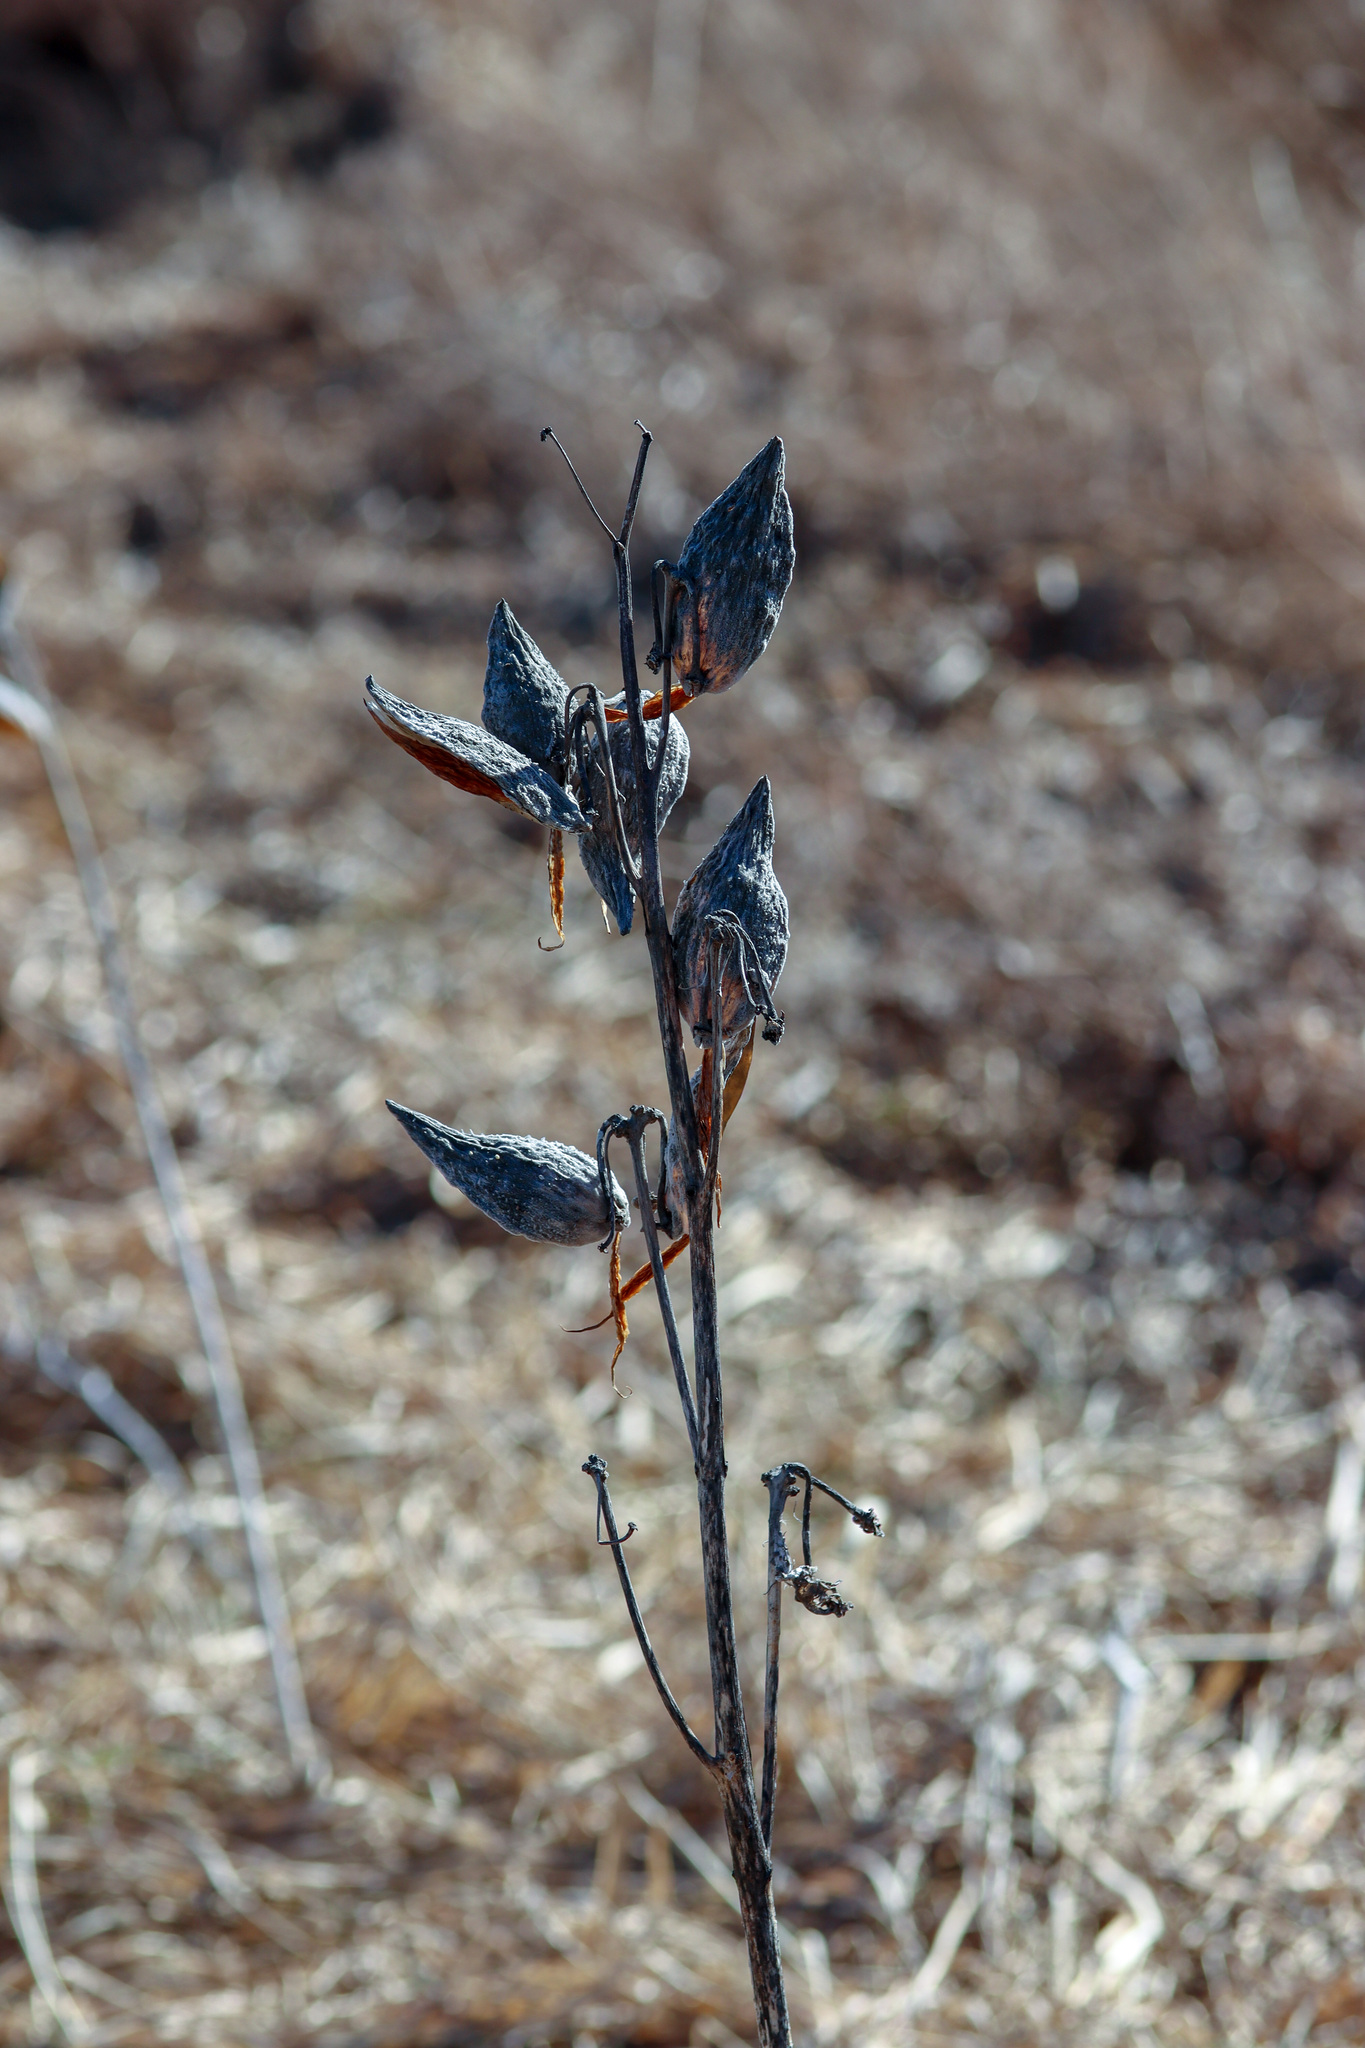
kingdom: Plantae
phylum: Tracheophyta
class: Magnoliopsida
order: Gentianales
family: Apocynaceae
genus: Asclepias
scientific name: Asclepias syriaca
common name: Common milkweed
